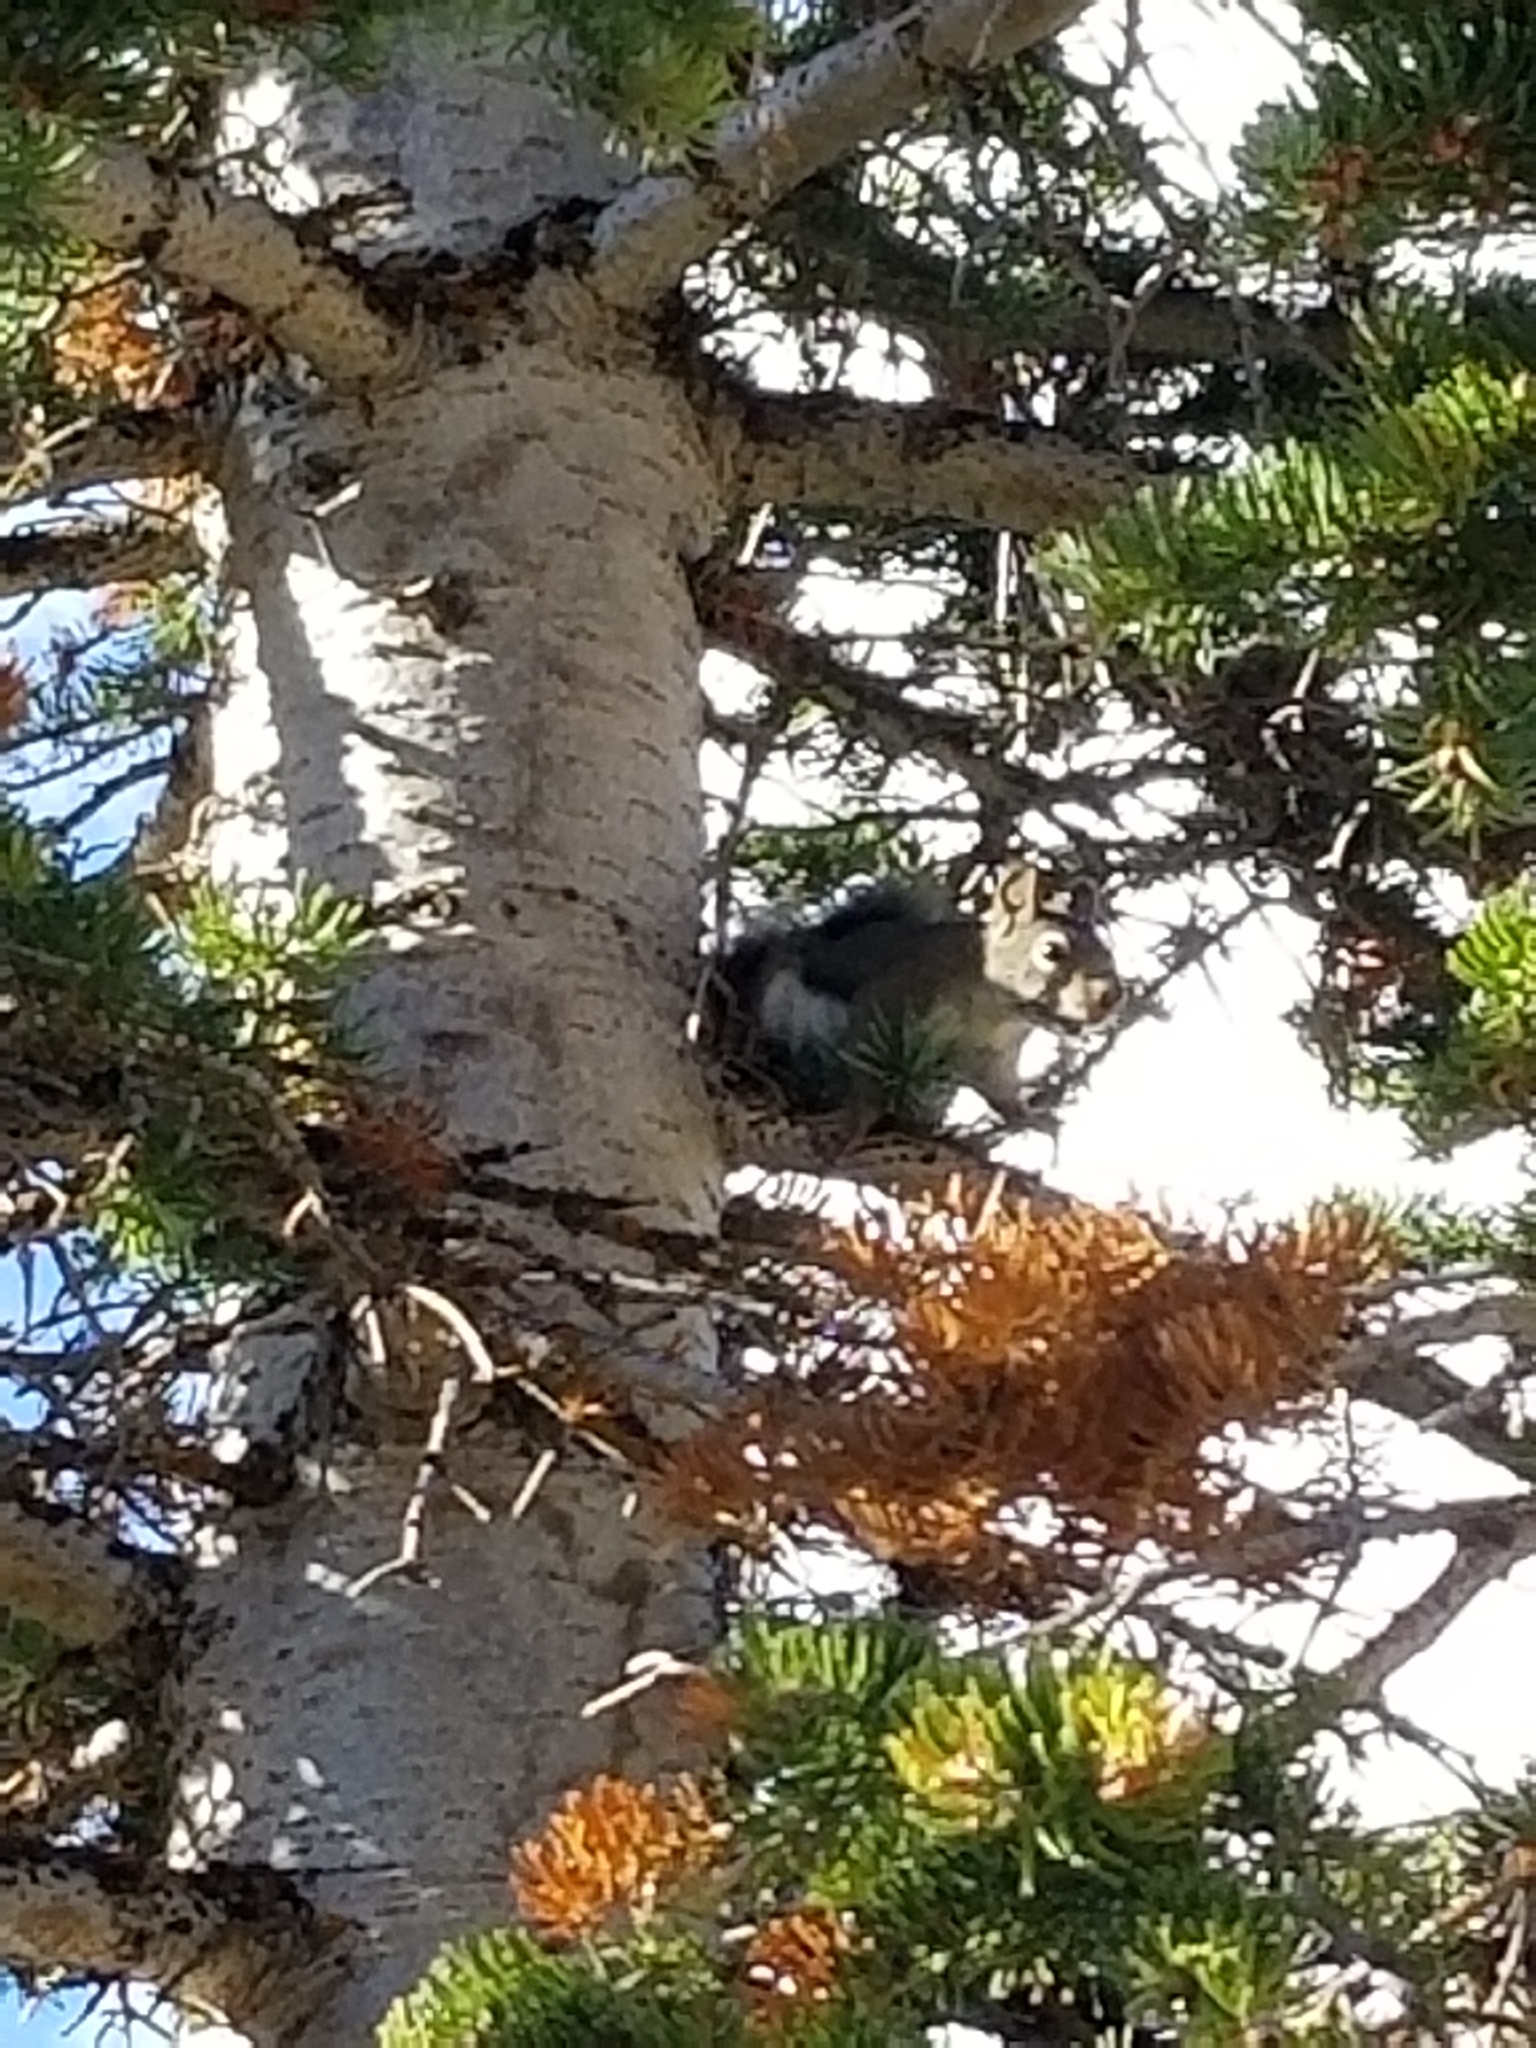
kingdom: Animalia
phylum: Chordata
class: Mammalia
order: Rodentia
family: Sciuridae
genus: Tamiasciurus
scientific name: Tamiasciurus hudsonicus
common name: Red squirrel
